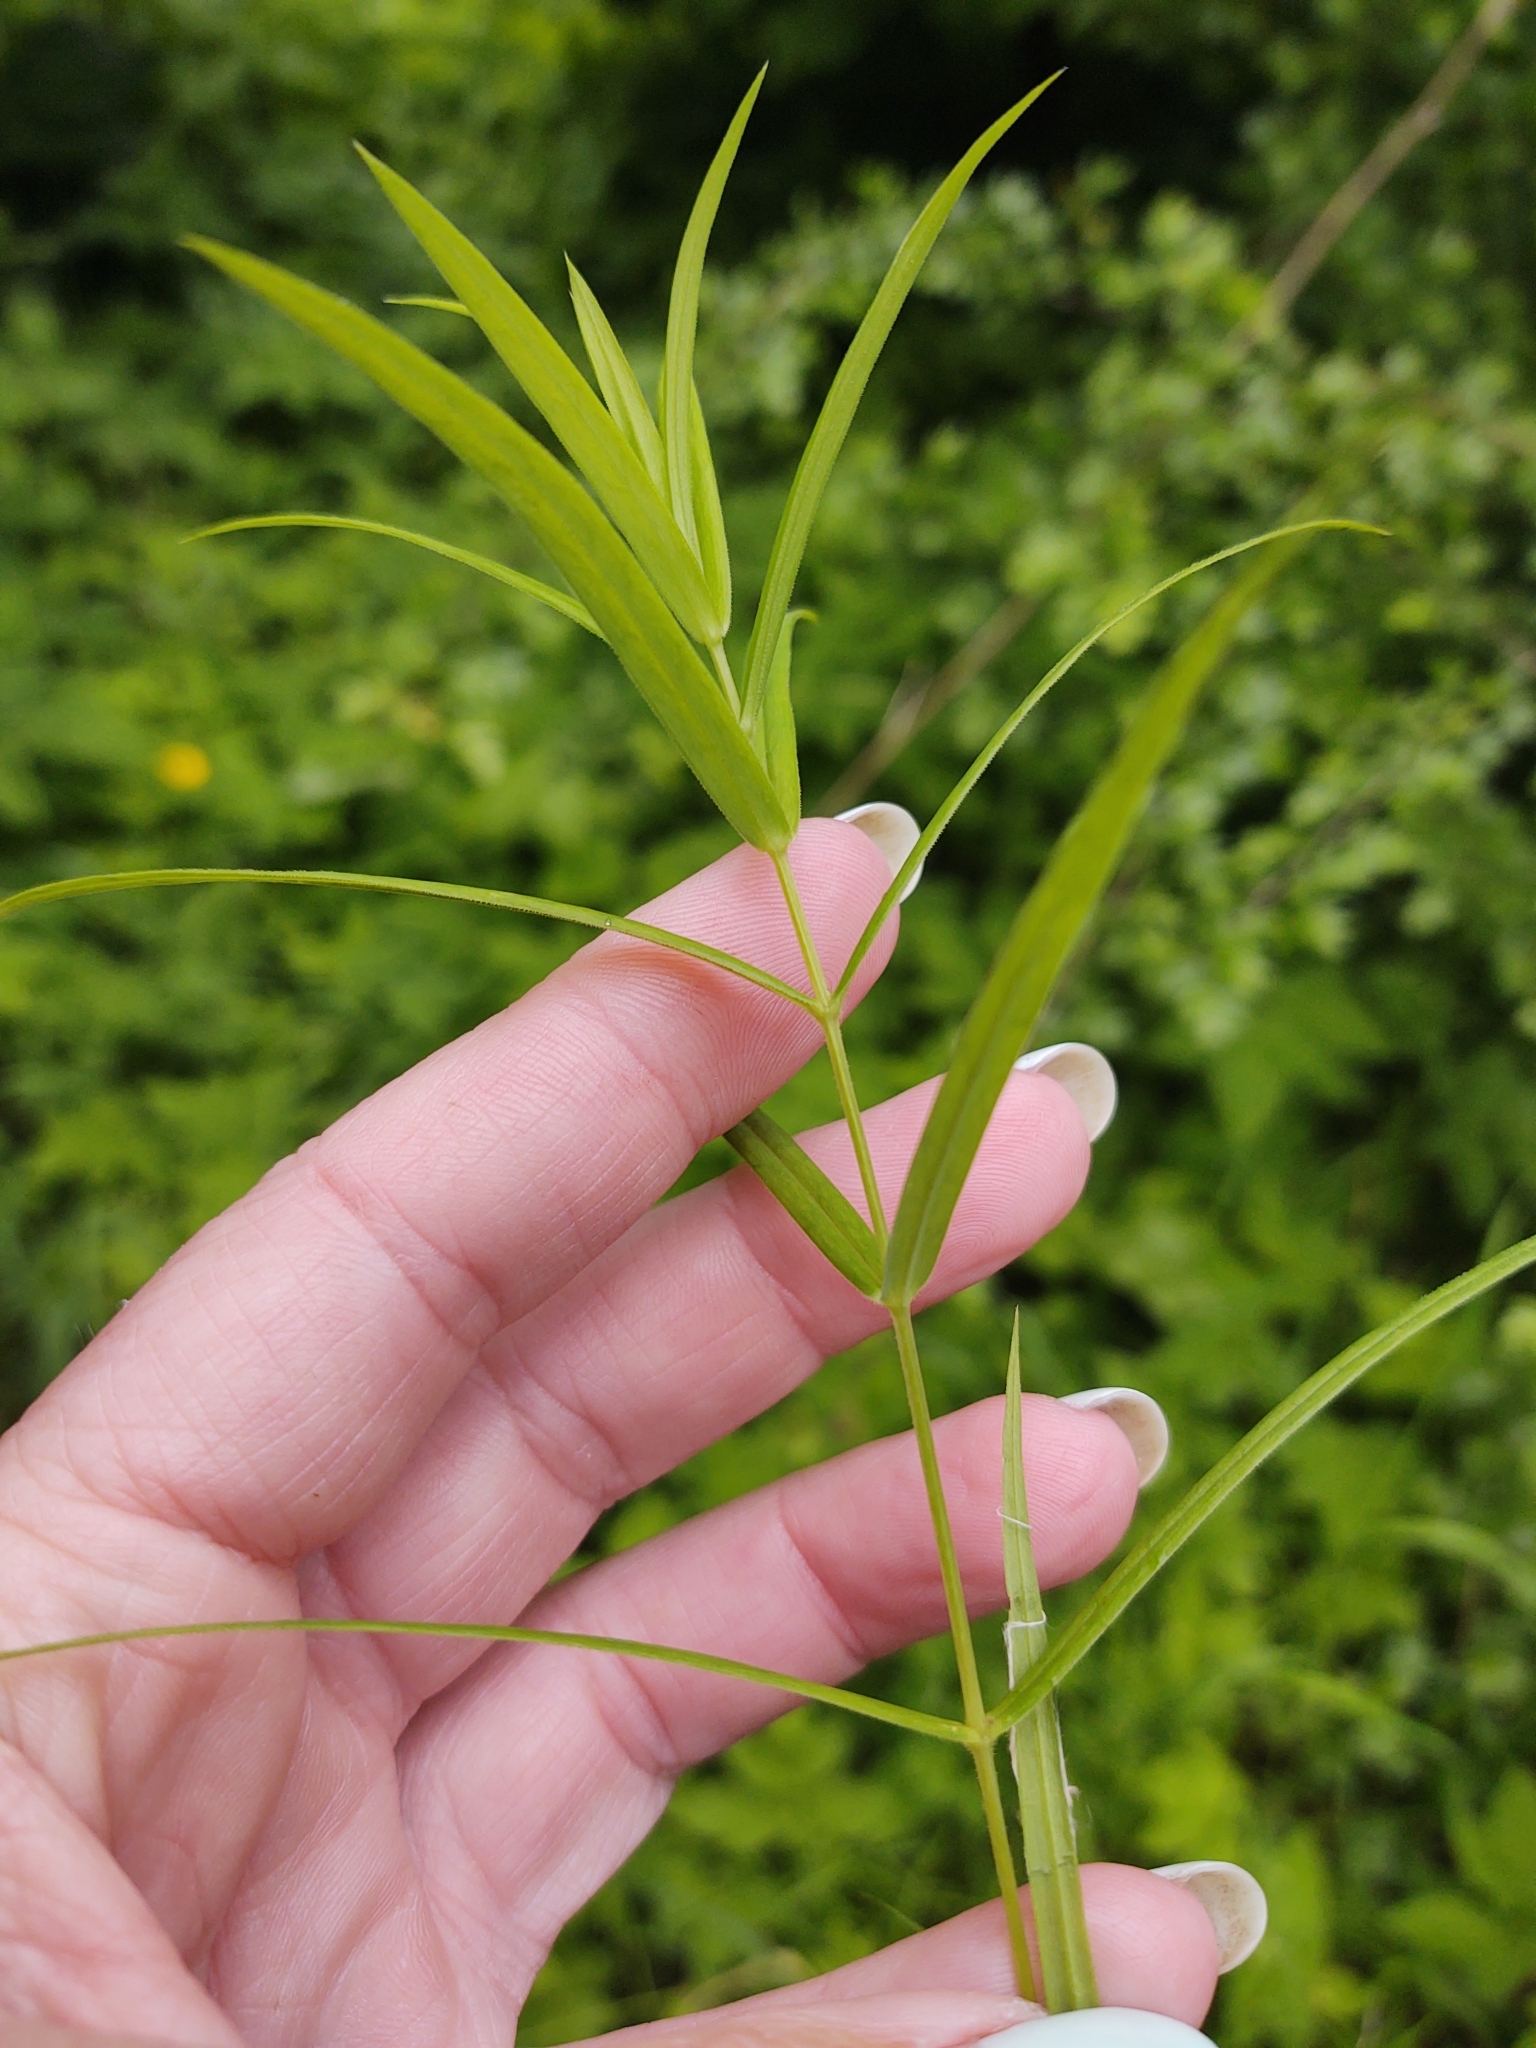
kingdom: Plantae
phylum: Tracheophyta
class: Magnoliopsida
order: Lamiales
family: Plantaginaceae
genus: Veronica
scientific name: Veronica scutellata
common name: Marsh speedwell
